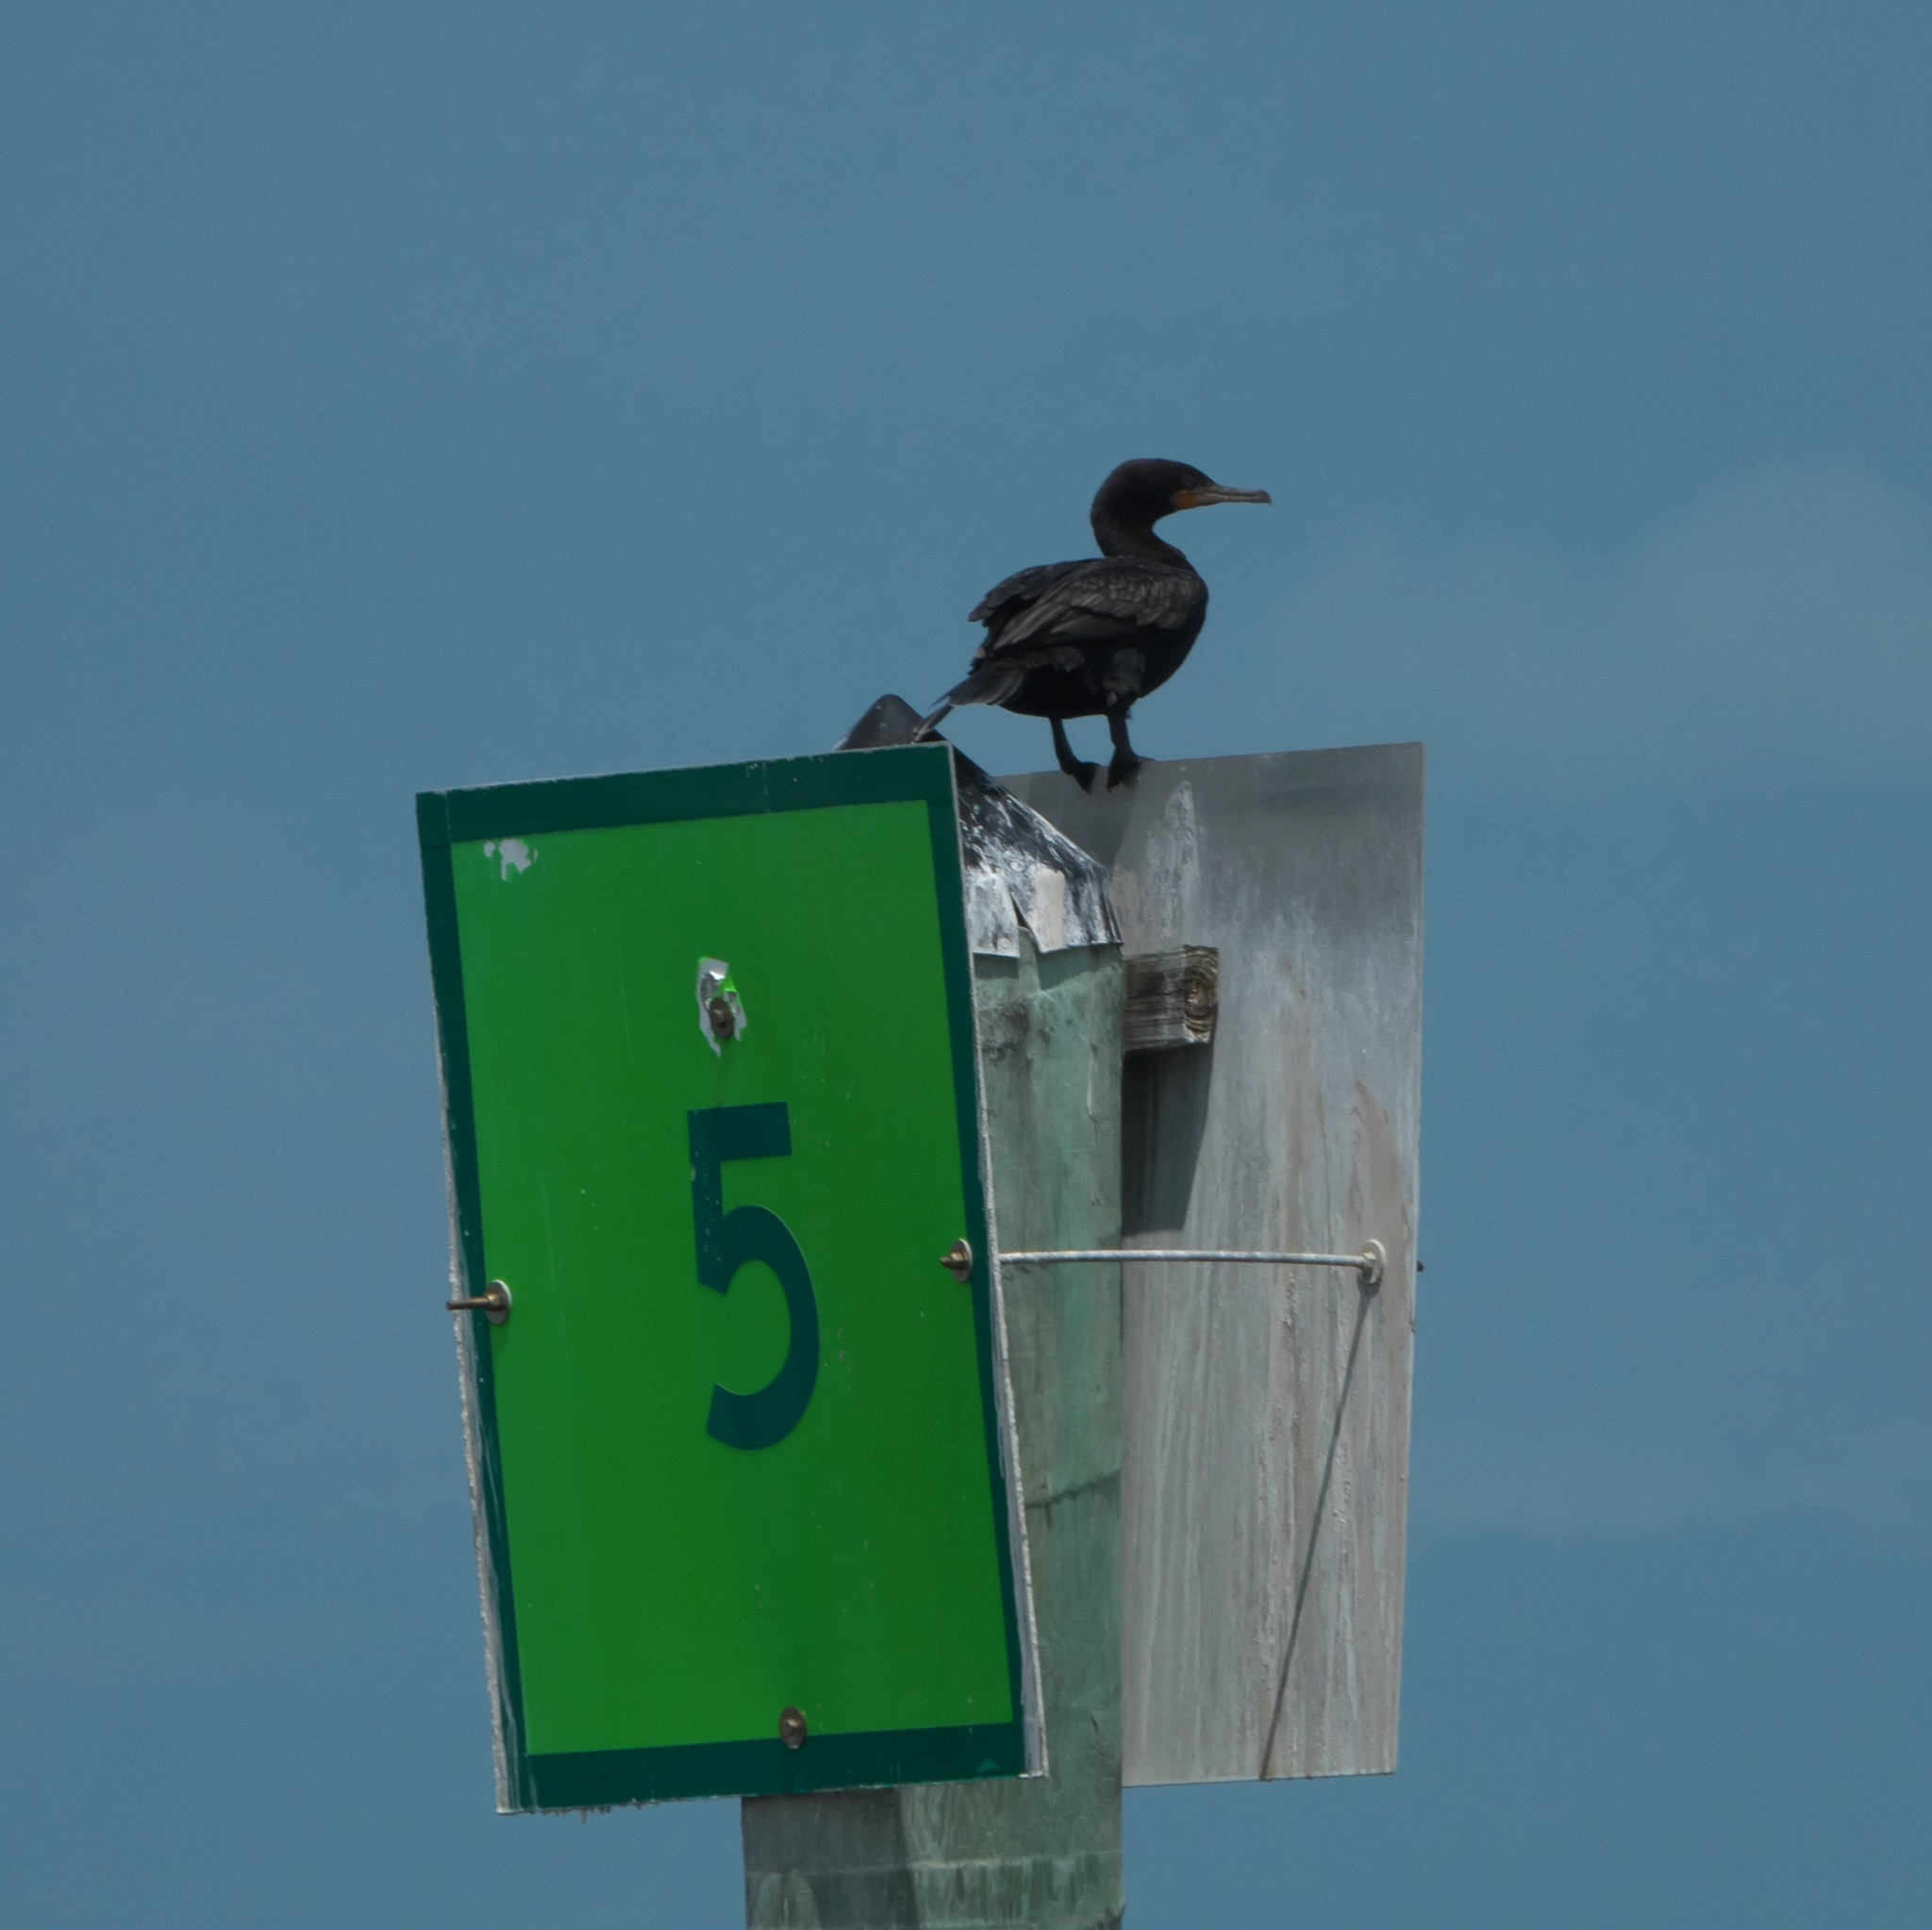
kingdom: Animalia
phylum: Chordata
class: Aves
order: Suliformes
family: Phalacrocoracidae
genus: Phalacrocorax
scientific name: Phalacrocorax auritus
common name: Double-crested cormorant
